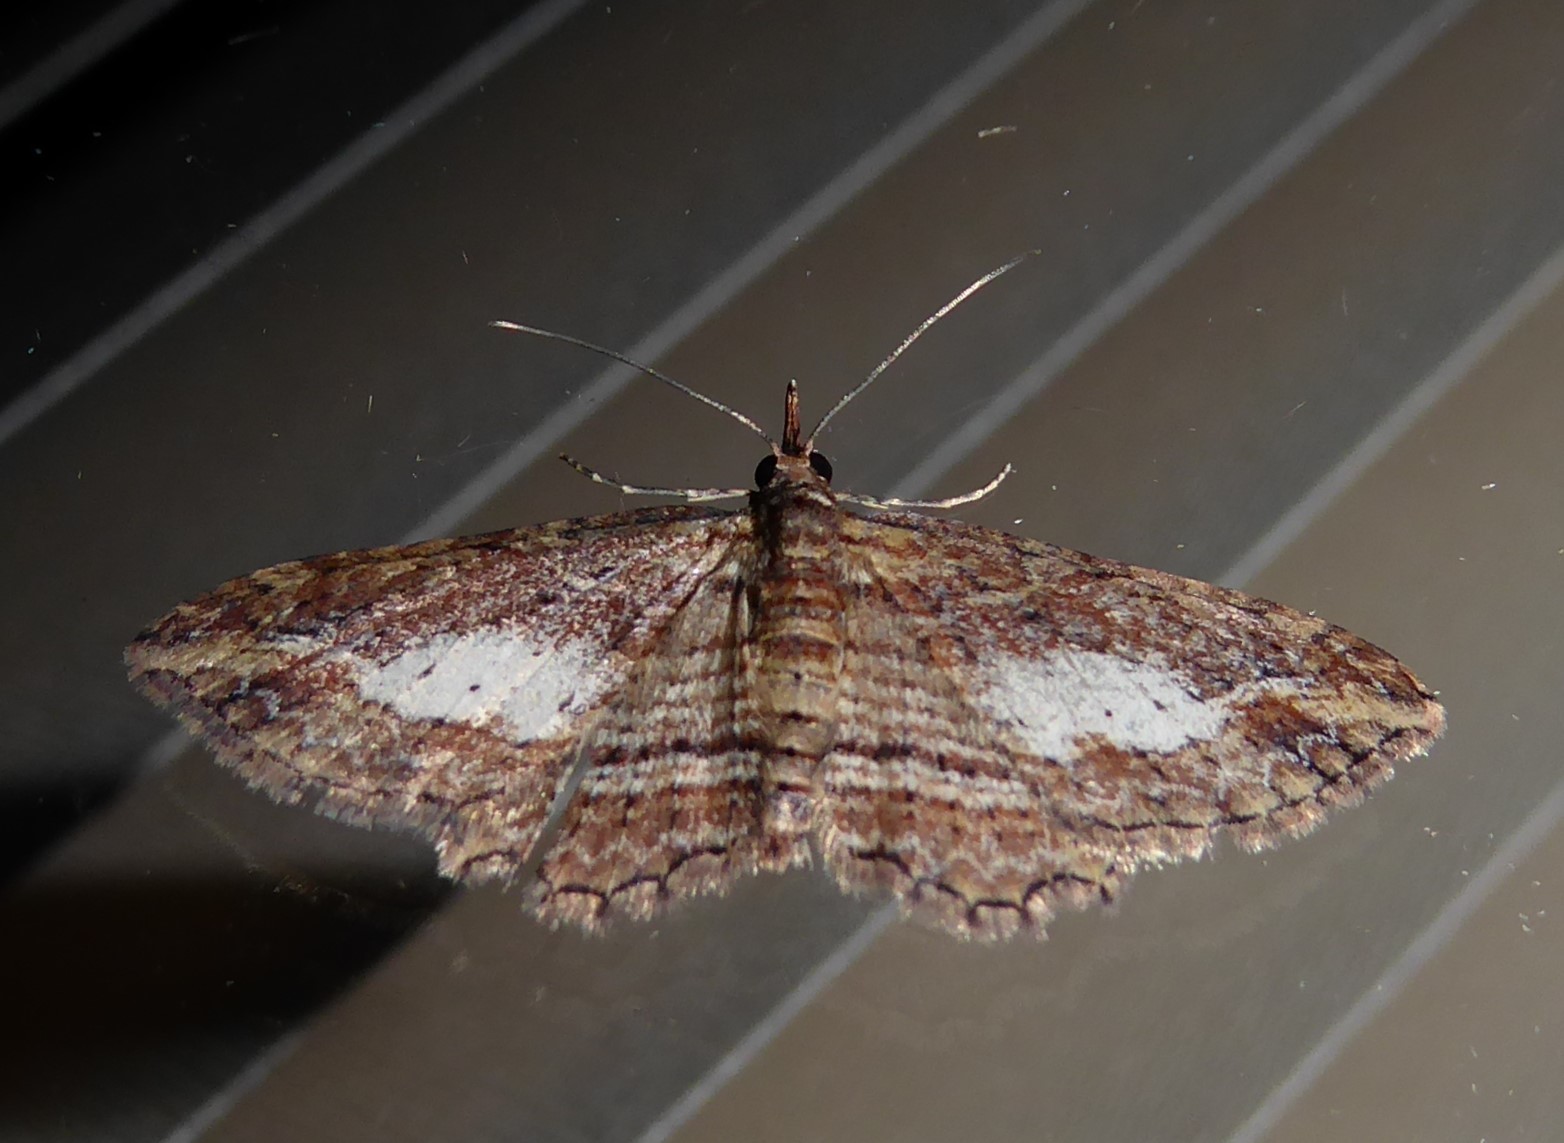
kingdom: Animalia
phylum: Arthropoda
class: Insecta
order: Lepidoptera
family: Geometridae
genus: Chloroclystis
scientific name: Chloroclystis filata
